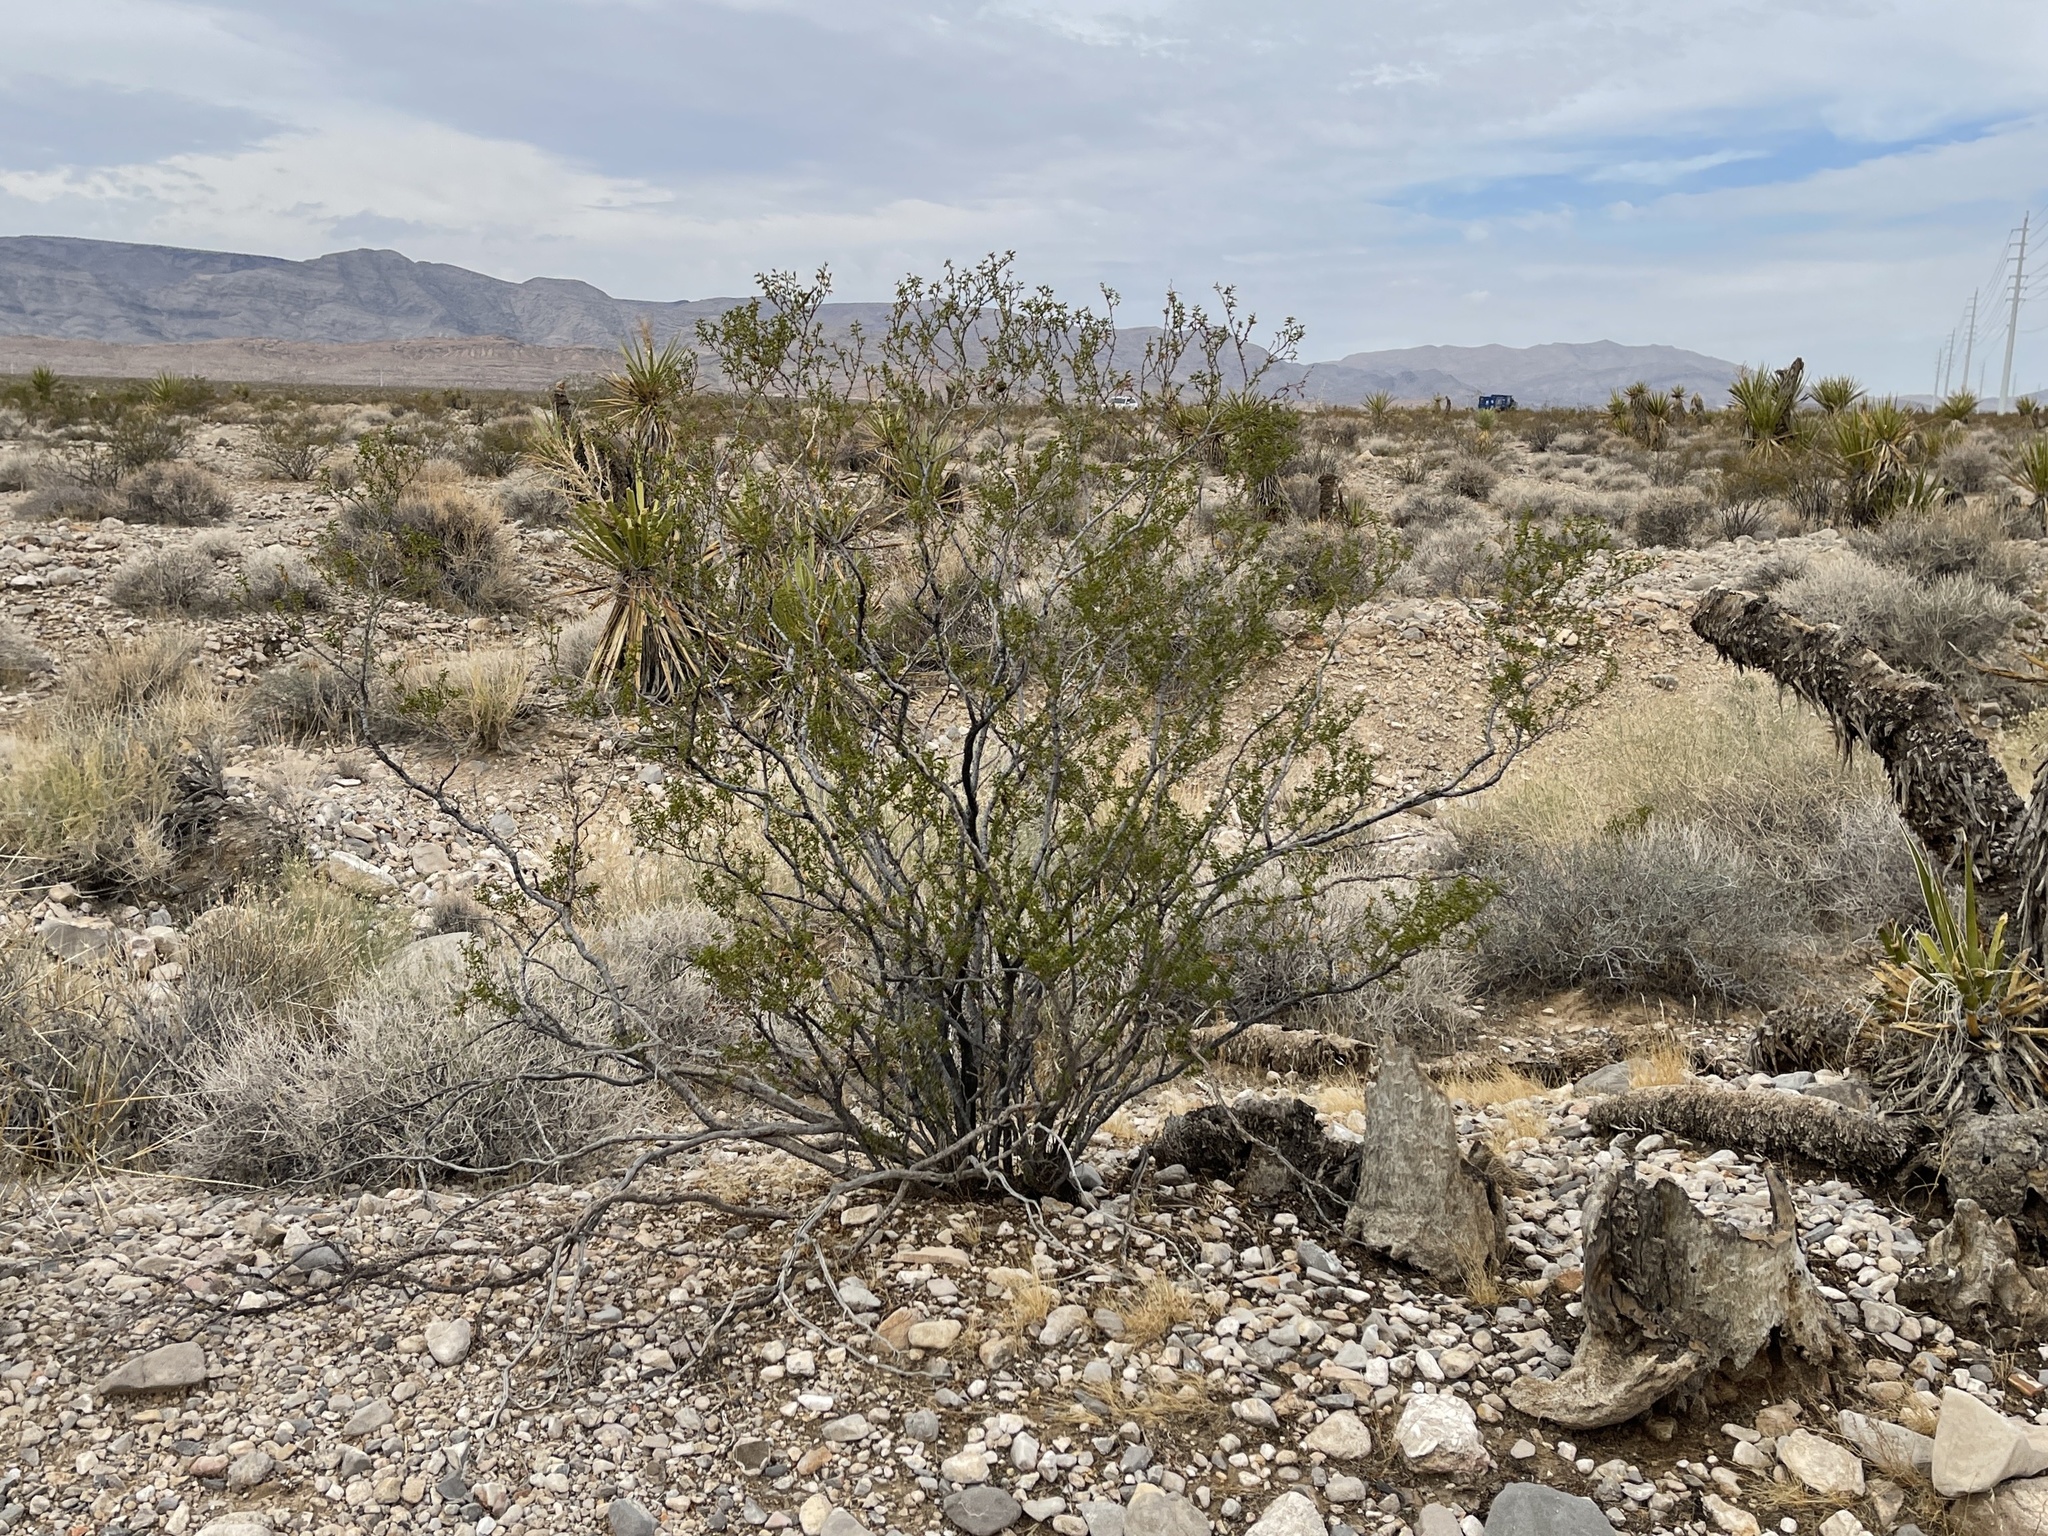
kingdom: Plantae
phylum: Tracheophyta
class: Magnoliopsida
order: Zygophyllales
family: Zygophyllaceae
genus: Larrea
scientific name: Larrea tridentata
